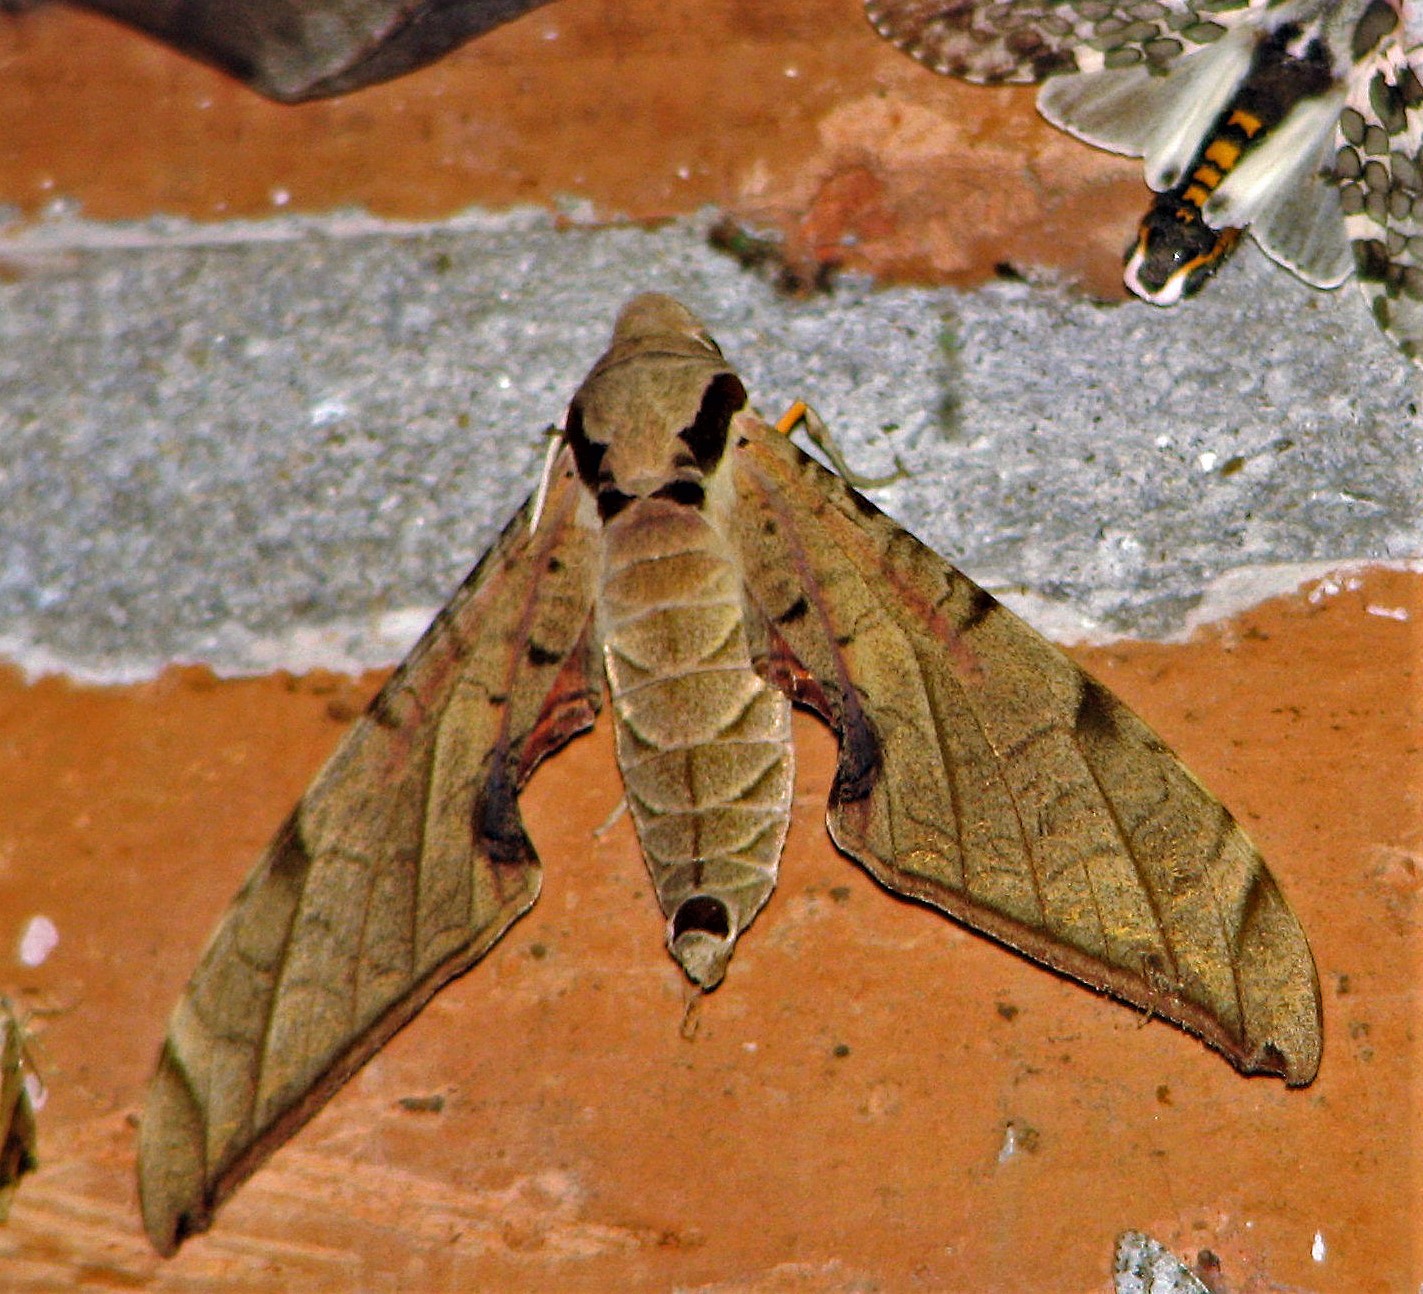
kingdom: Animalia
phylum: Arthropoda
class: Insecta
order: Lepidoptera
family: Sphingidae
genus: Protambulyx
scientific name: Protambulyx strigilis
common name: Streaked sphinx
